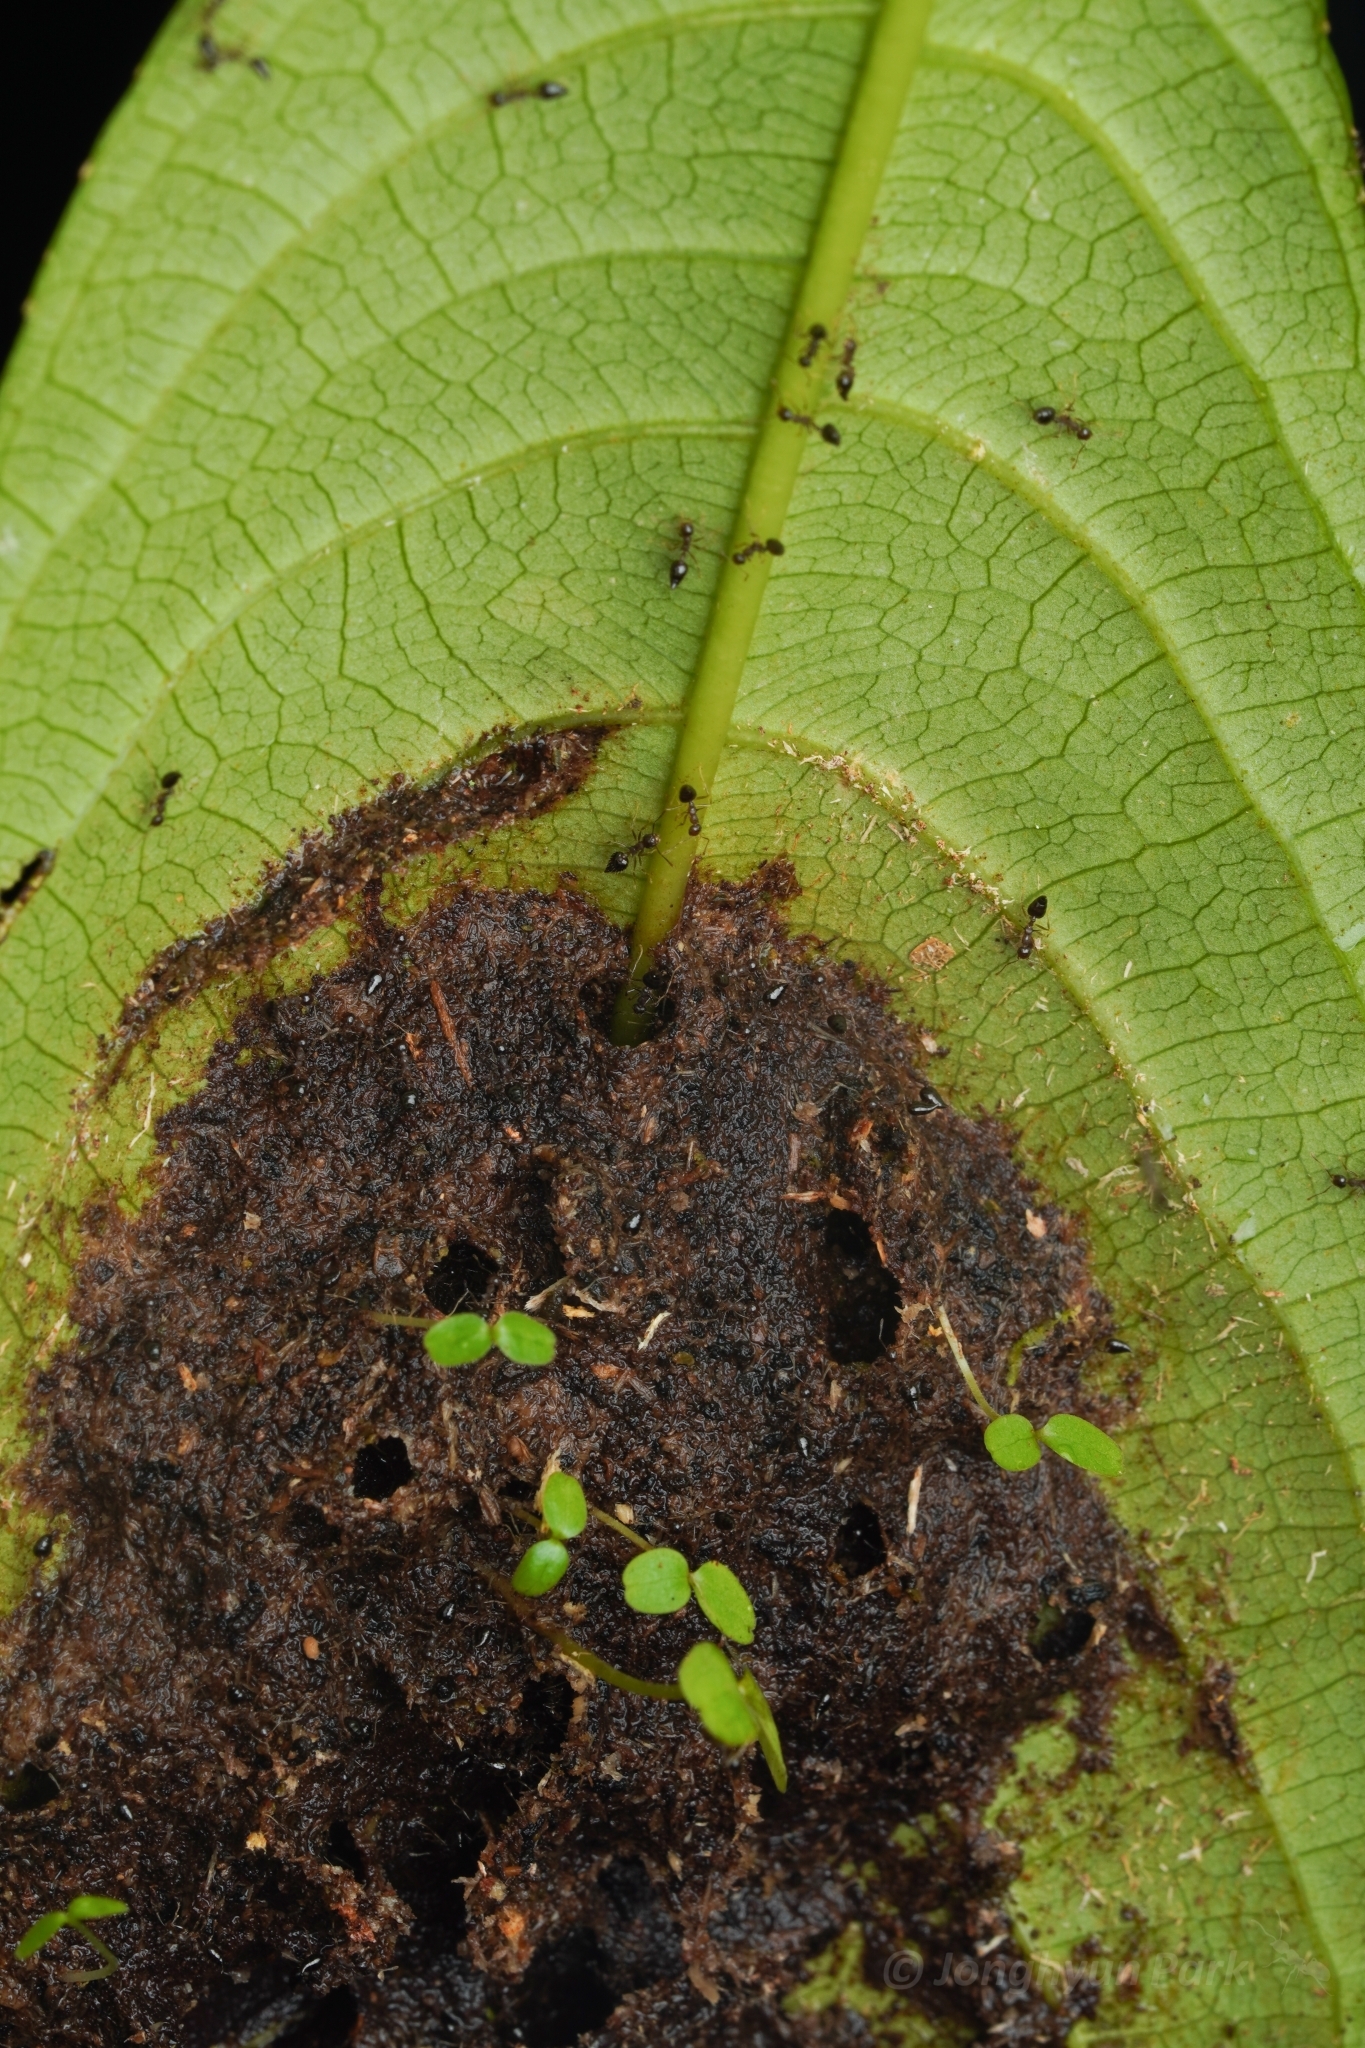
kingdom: Animalia
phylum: Arthropoda
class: Insecta
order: Hymenoptera
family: Formicidae
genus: Crematogaster
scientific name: Crematogaster macracantha
